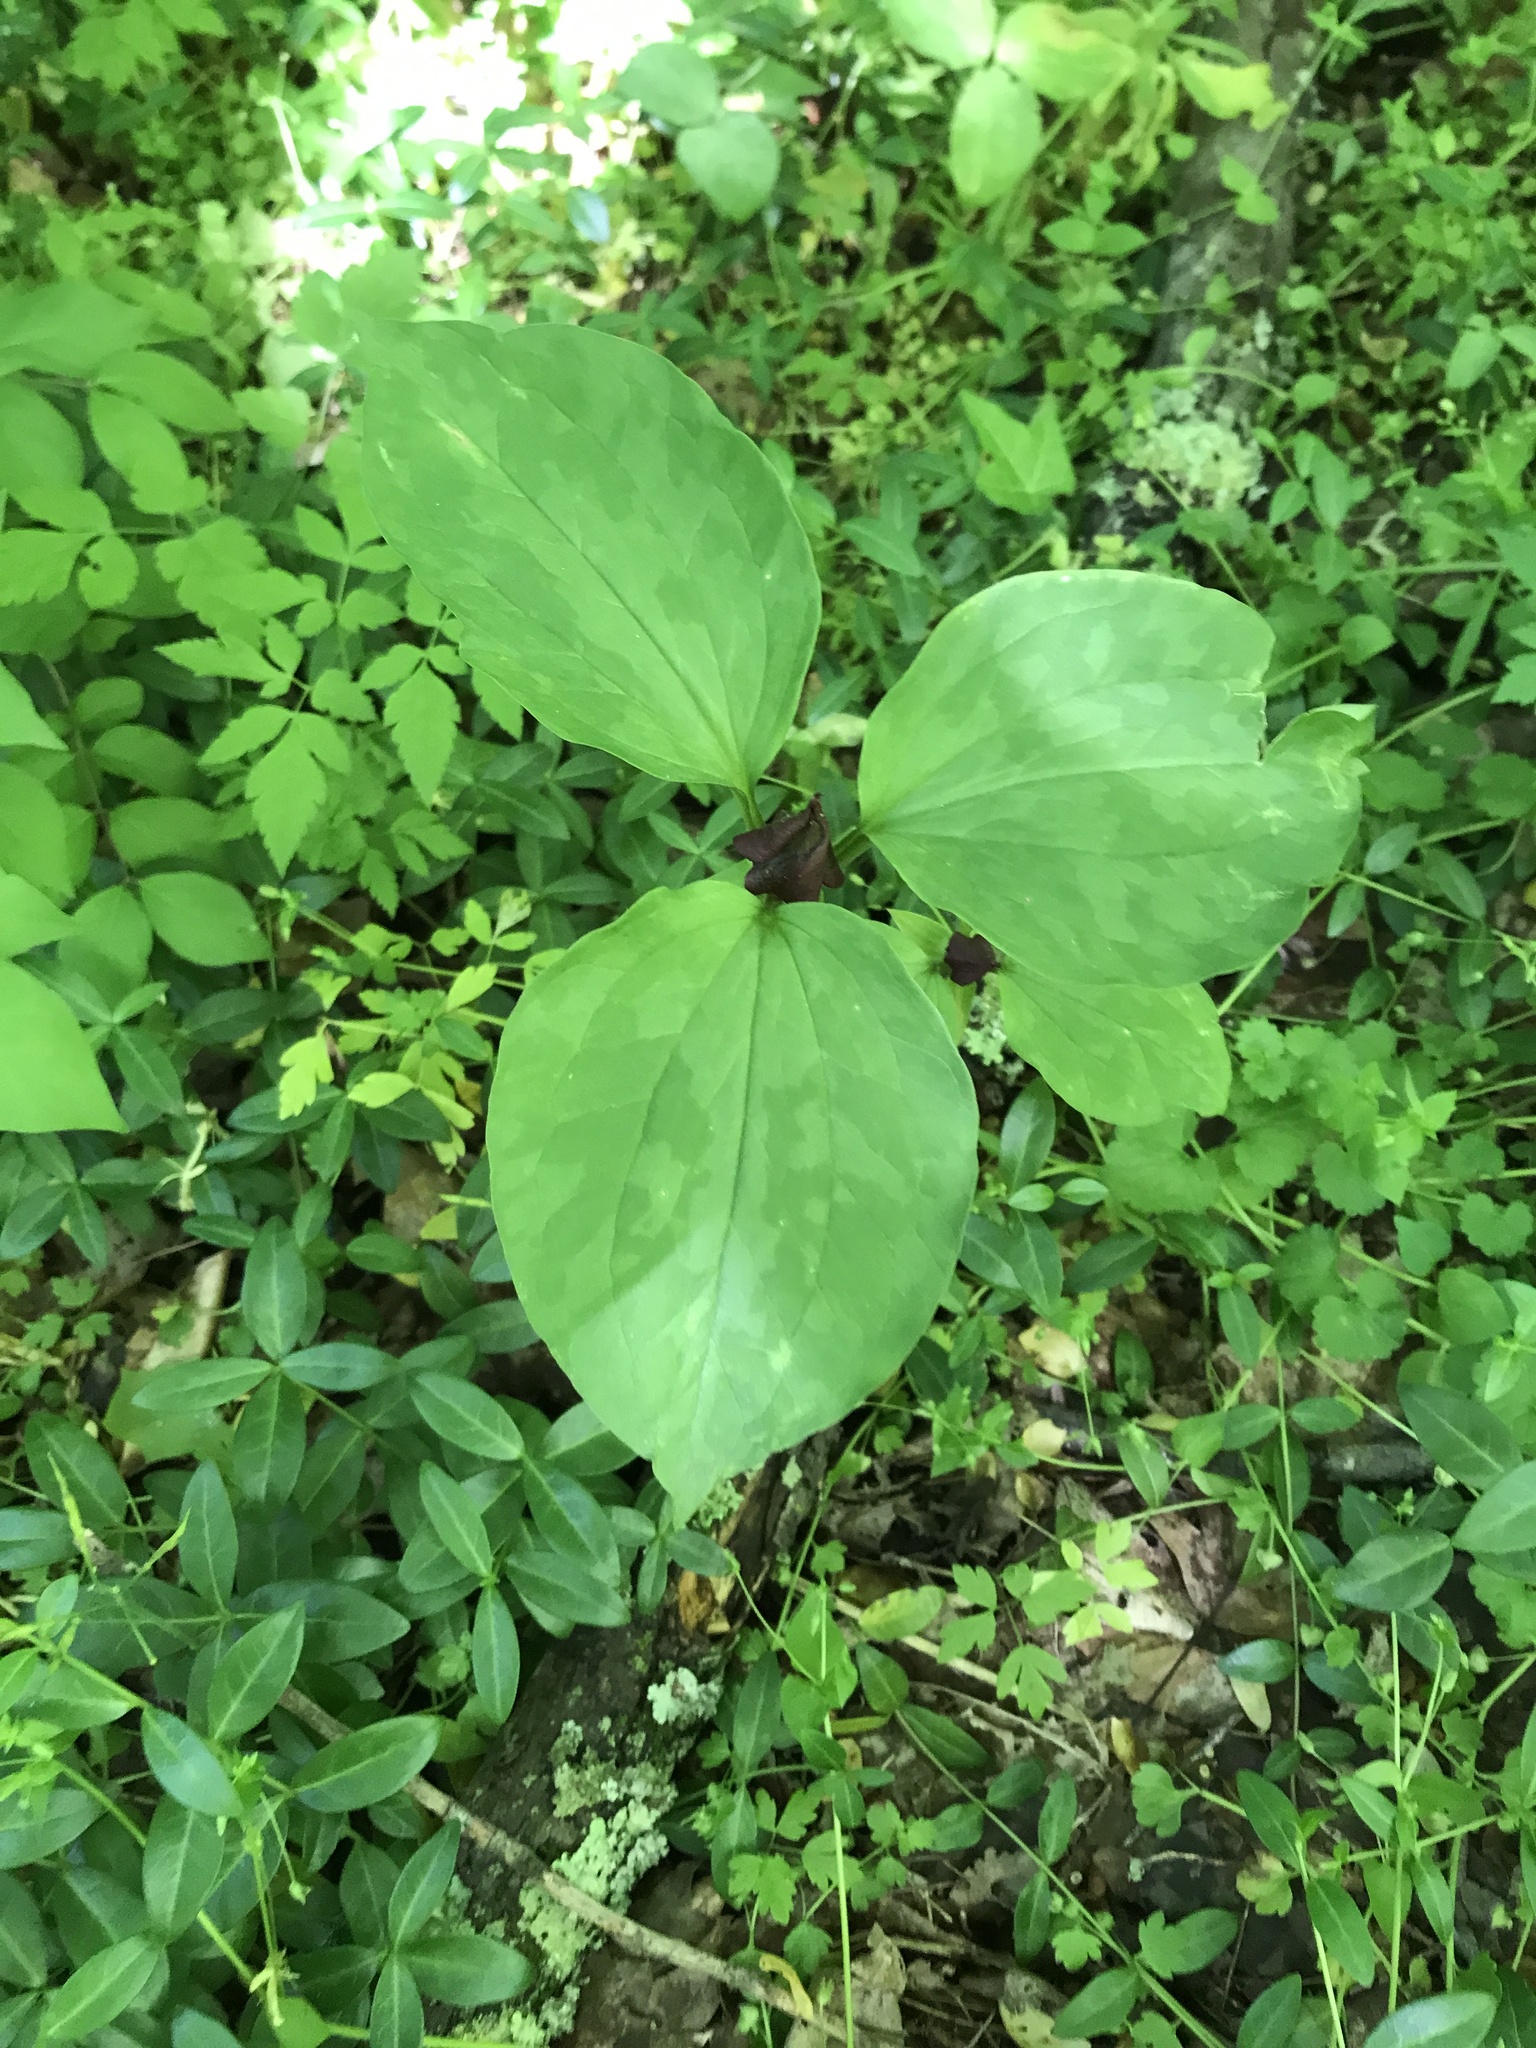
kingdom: Plantae
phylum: Tracheophyta
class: Liliopsida
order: Liliales
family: Melanthiaceae
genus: Trillium
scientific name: Trillium recurvatum
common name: Bloody butcher
